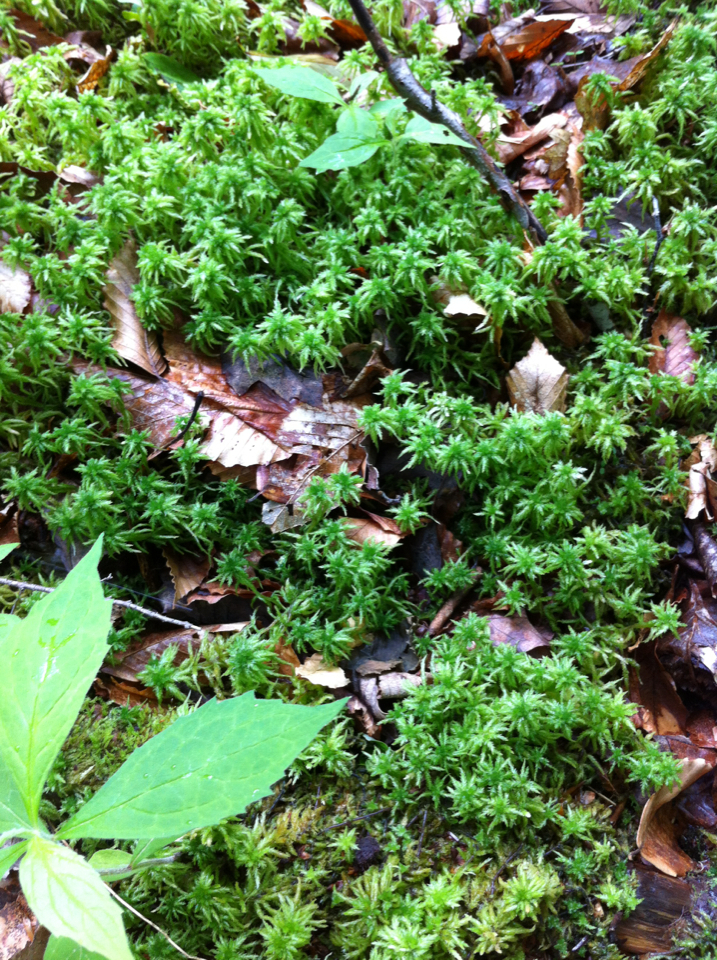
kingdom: Plantae
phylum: Bryophyta
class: Sphagnopsida
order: Sphagnales
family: Sphagnaceae
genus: Sphagnum
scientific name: Sphagnum girgensohnii
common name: Girgensohn's peat moss
